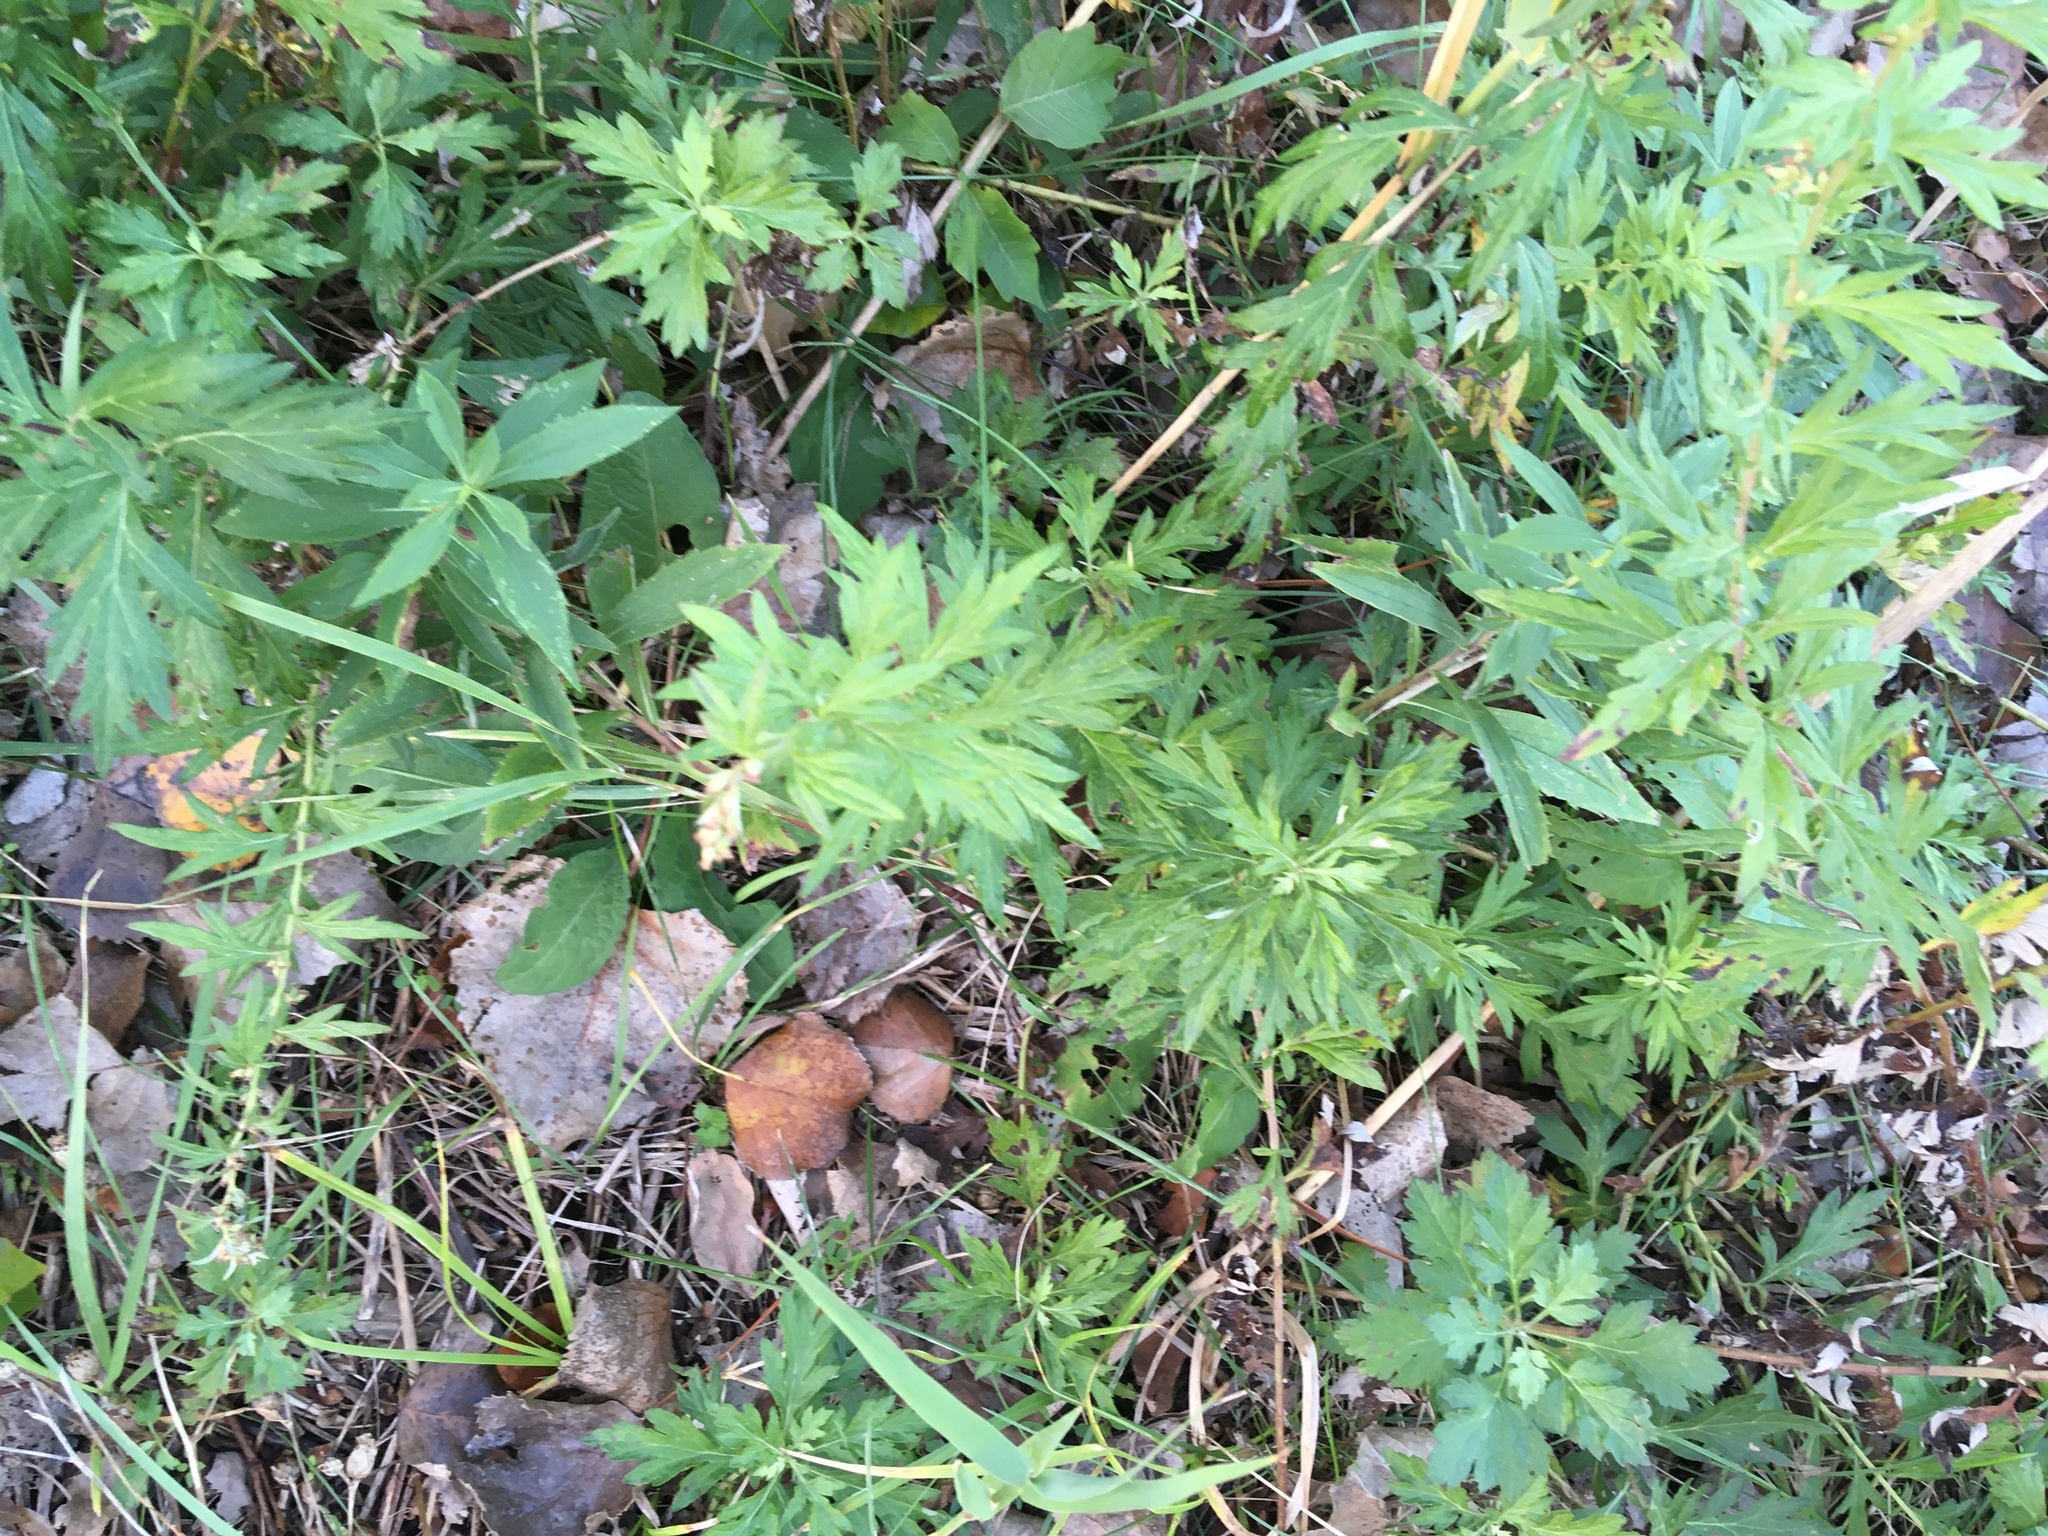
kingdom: Plantae
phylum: Tracheophyta
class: Magnoliopsida
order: Asterales
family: Asteraceae
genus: Artemisia
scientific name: Artemisia vulgaris
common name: Mugwort
